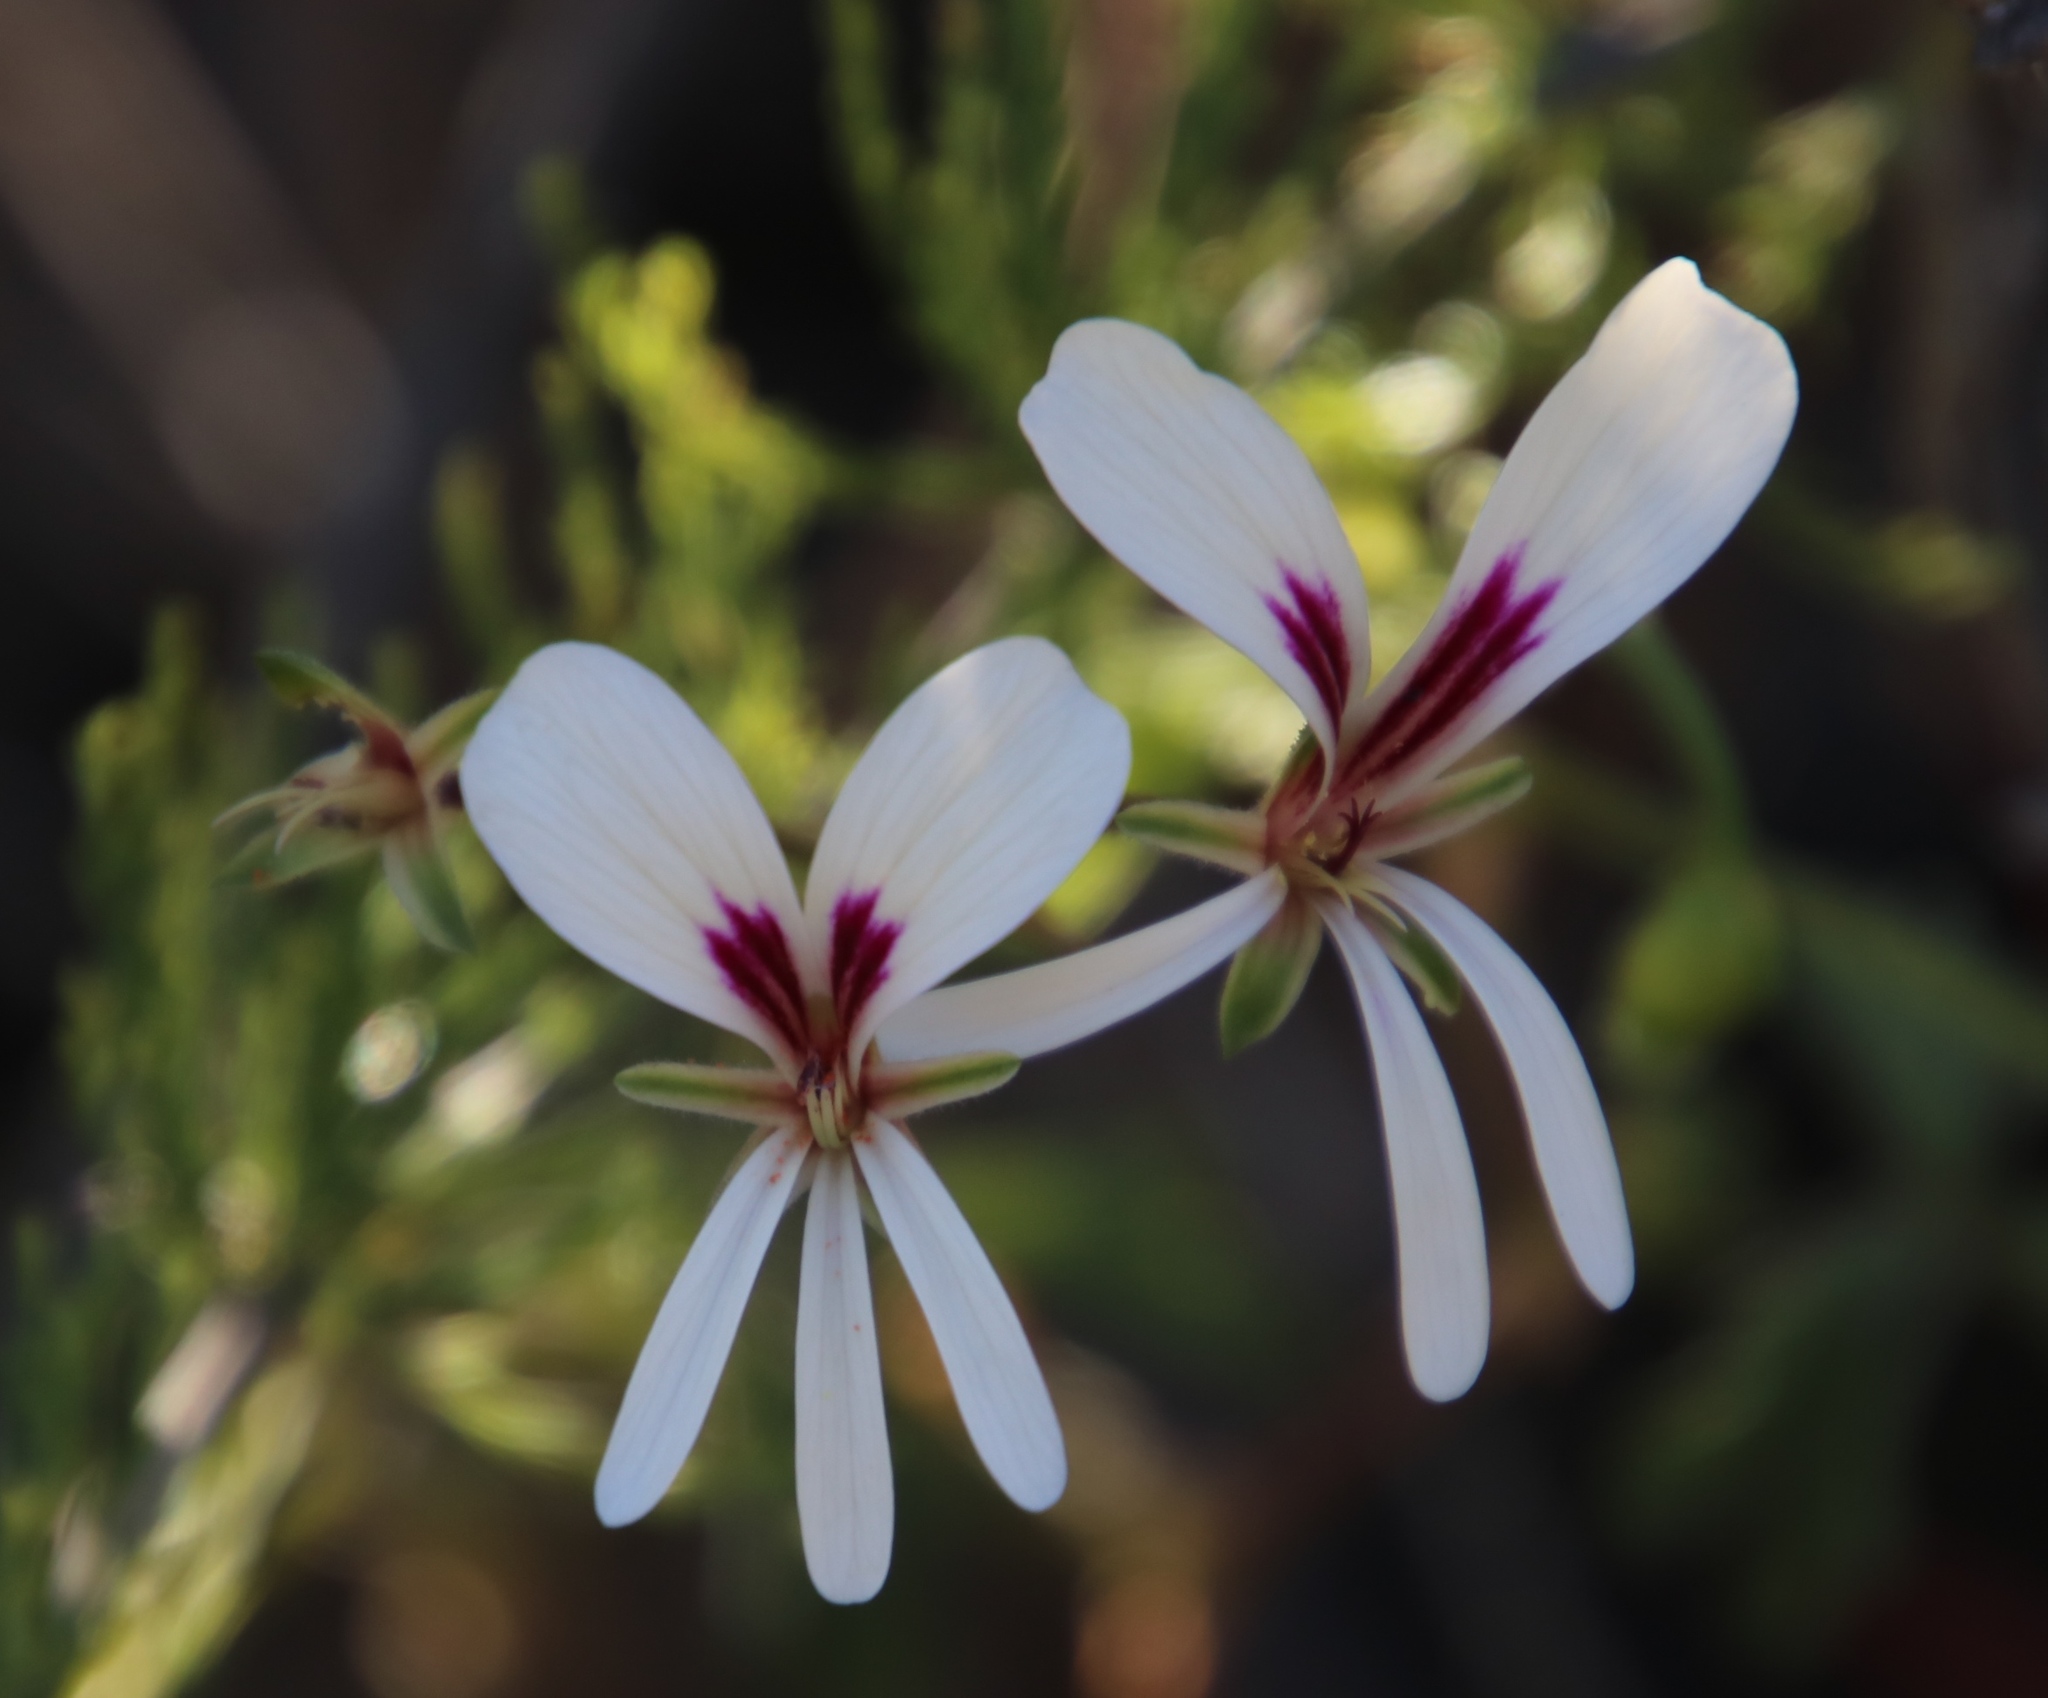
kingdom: Plantae
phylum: Tracheophyta
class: Magnoliopsida
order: Geraniales
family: Geraniaceae
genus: Pelargonium
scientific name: Pelargonium trifidum
